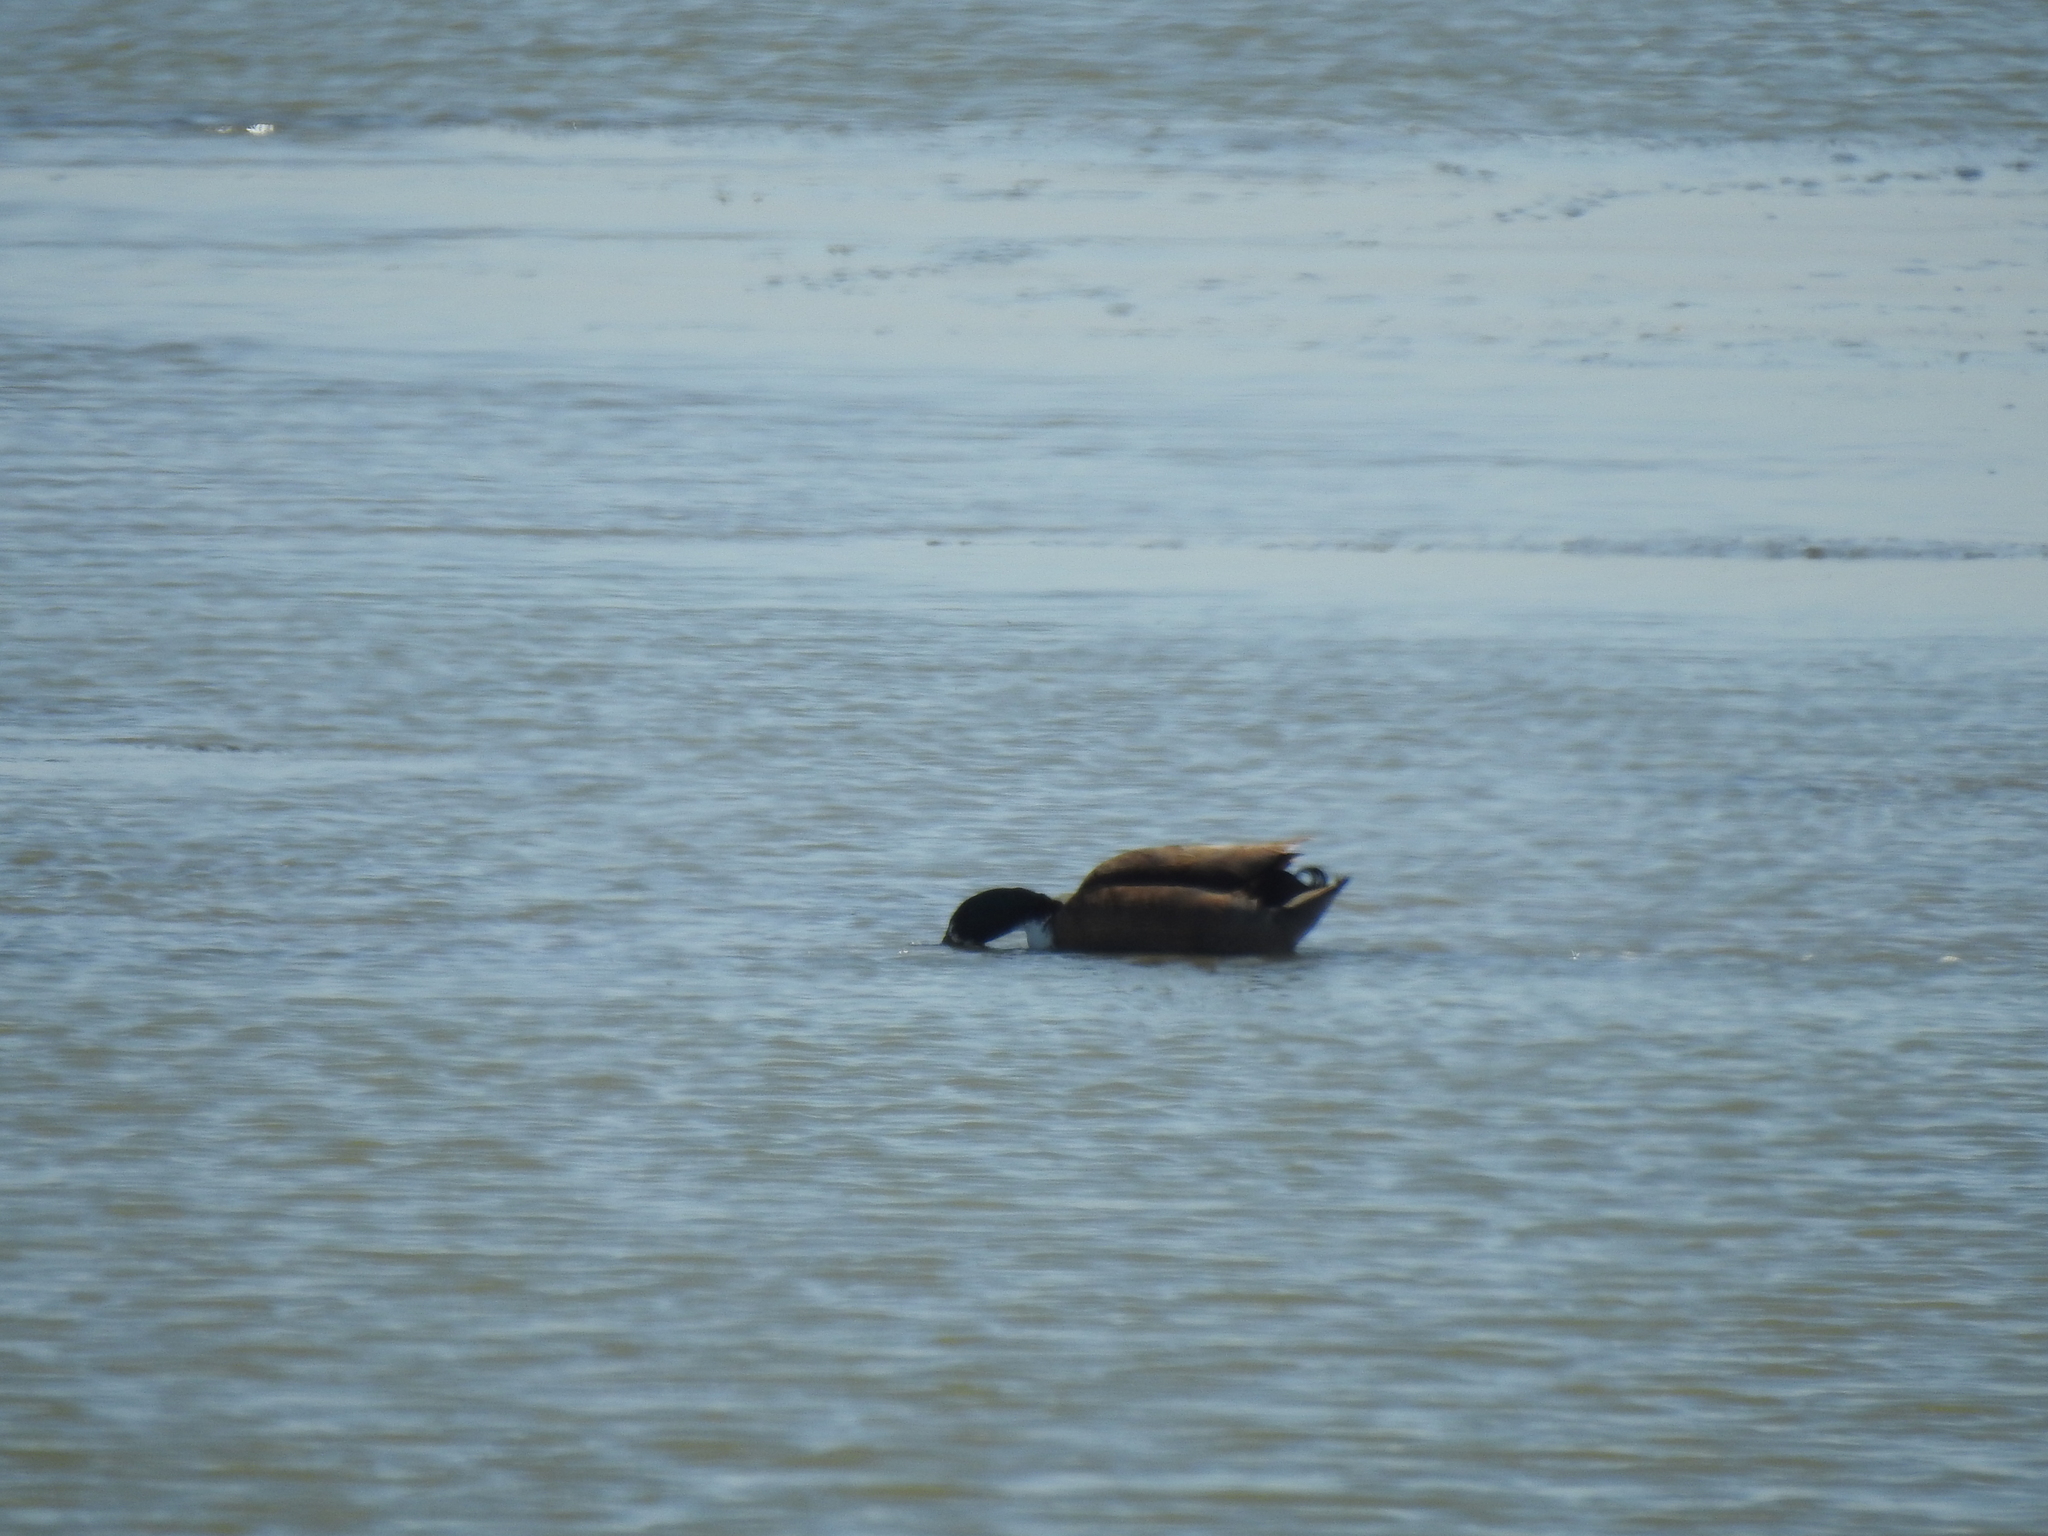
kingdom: Animalia
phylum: Chordata
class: Aves
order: Anseriformes
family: Anatidae
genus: Anas
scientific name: Anas platyrhynchos
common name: Mallard
